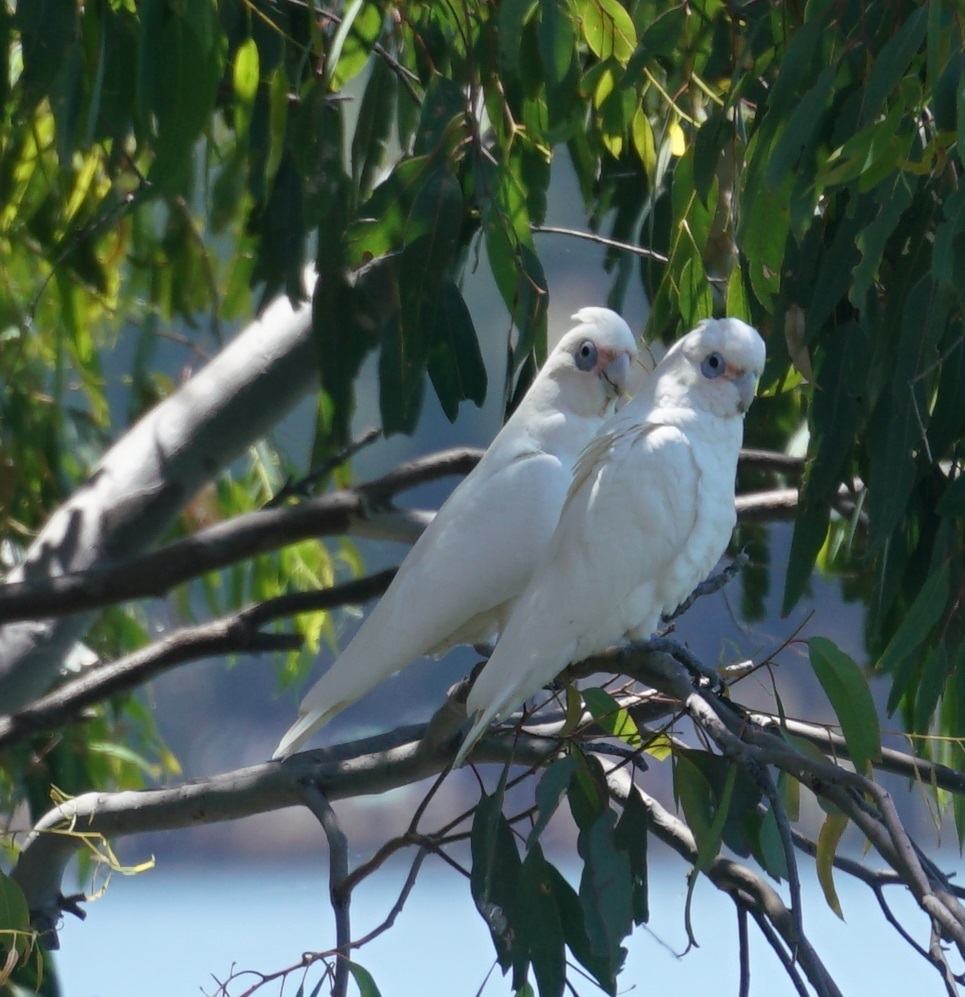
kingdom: Animalia
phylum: Chordata
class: Aves
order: Psittaciformes
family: Psittacidae
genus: Cacatua
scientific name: Cacatua sanguinea
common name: Little corella
